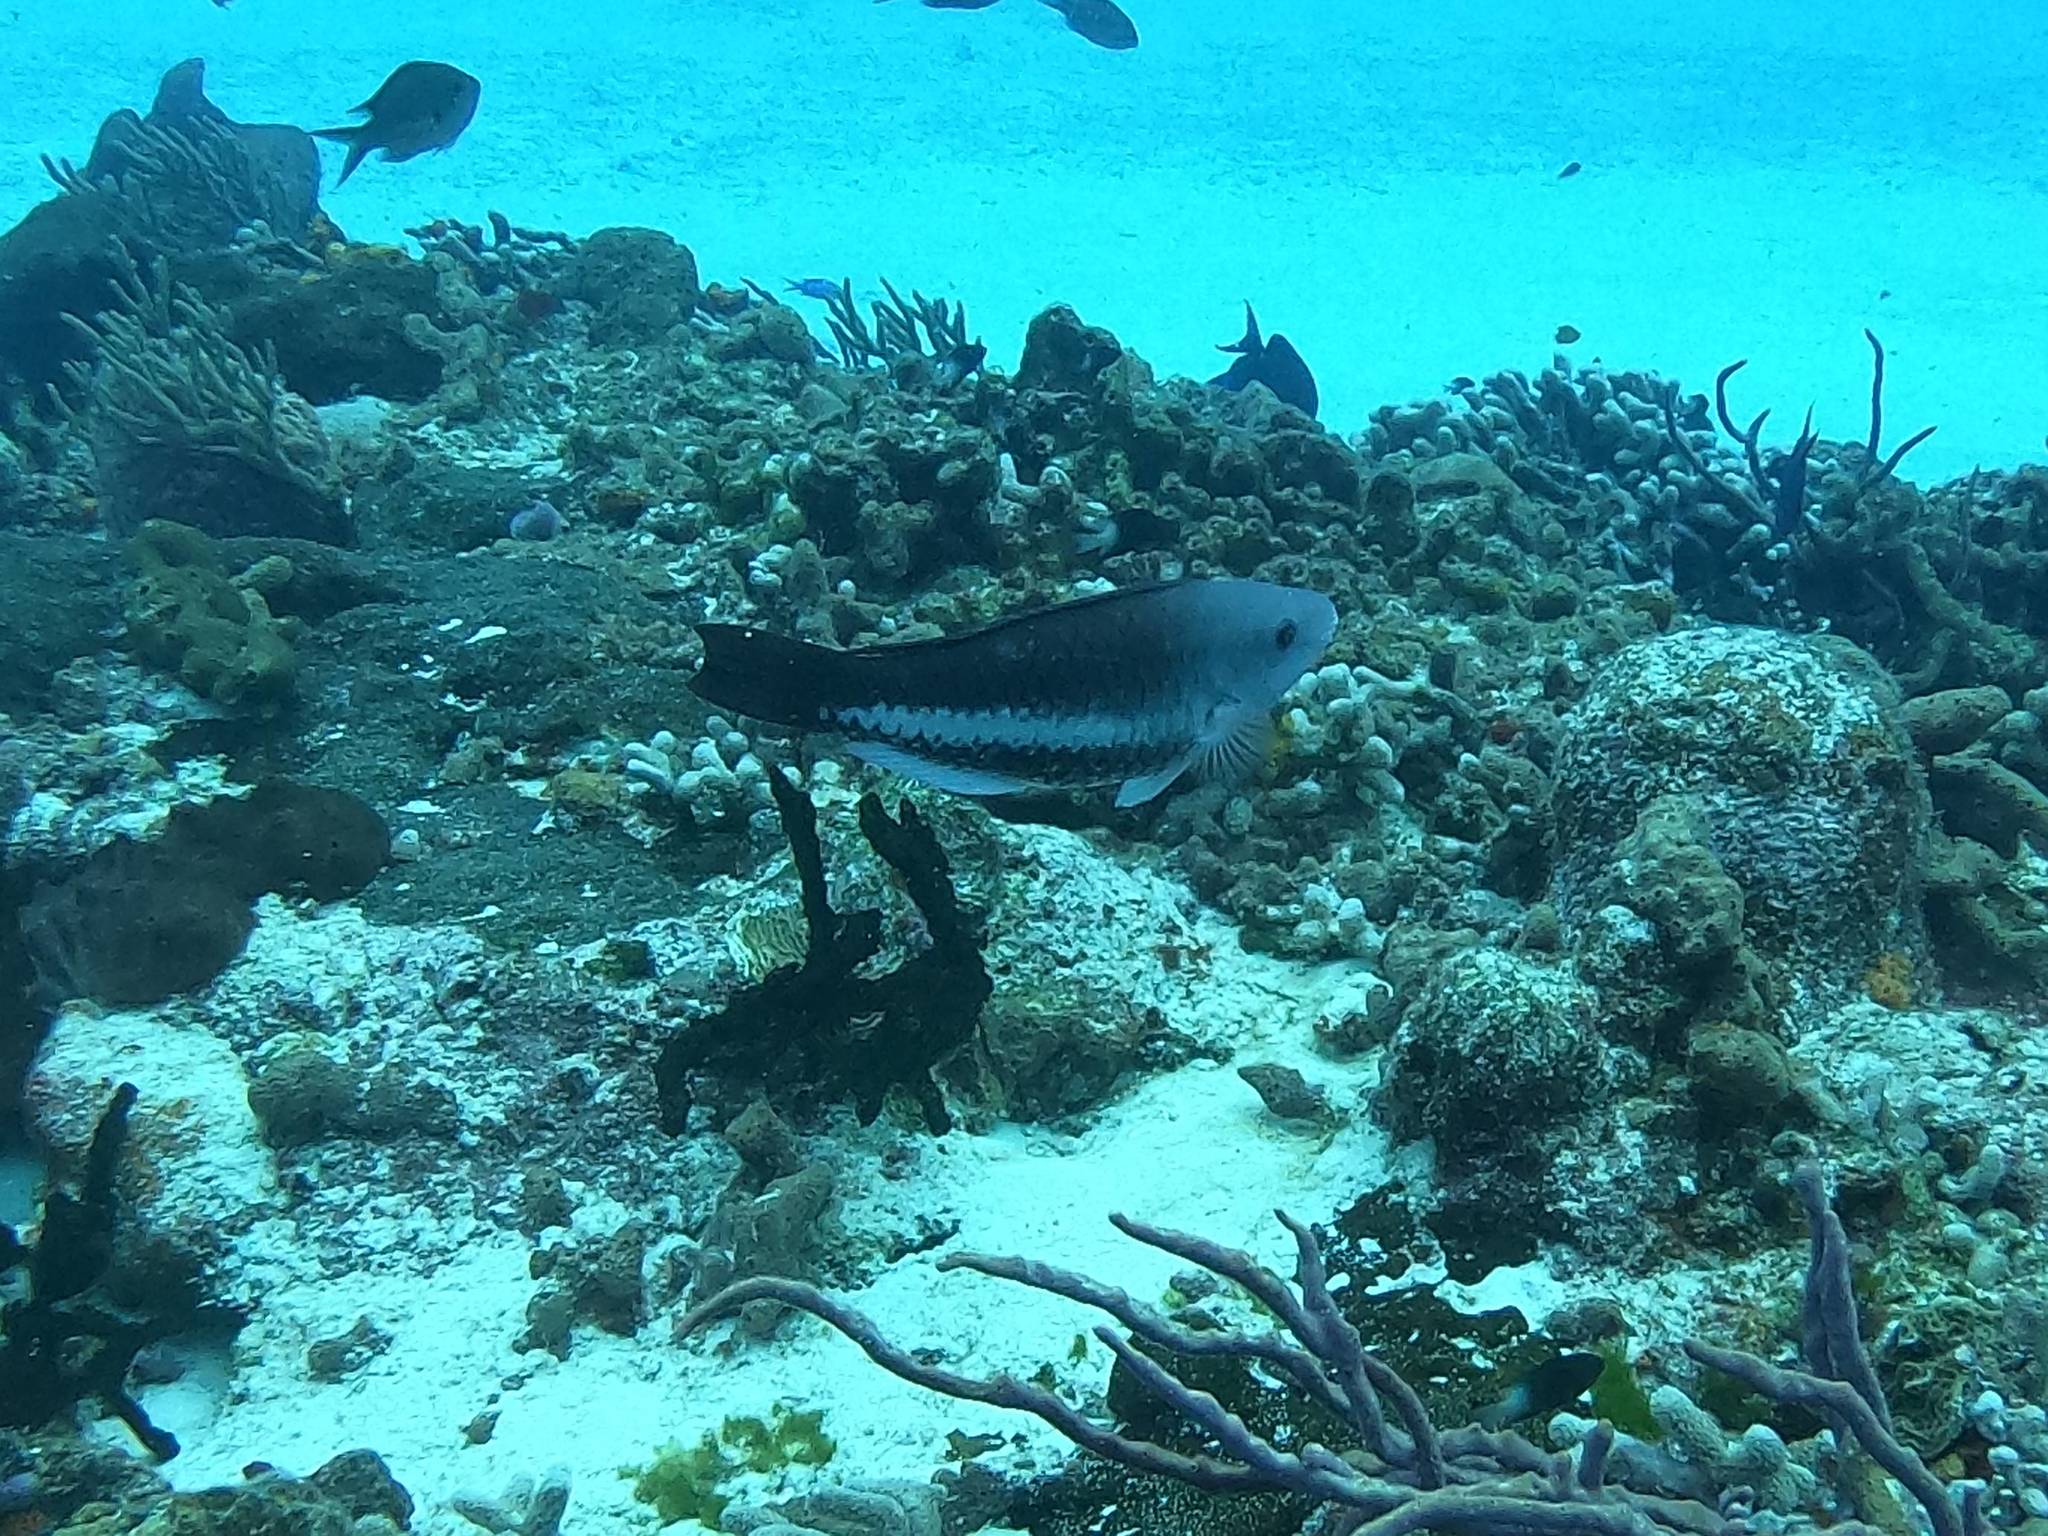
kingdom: Animalia
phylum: Chordata
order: Perciformes
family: Scaridae
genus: Scarus
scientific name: Scarus vetula
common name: Queen parrotfish
